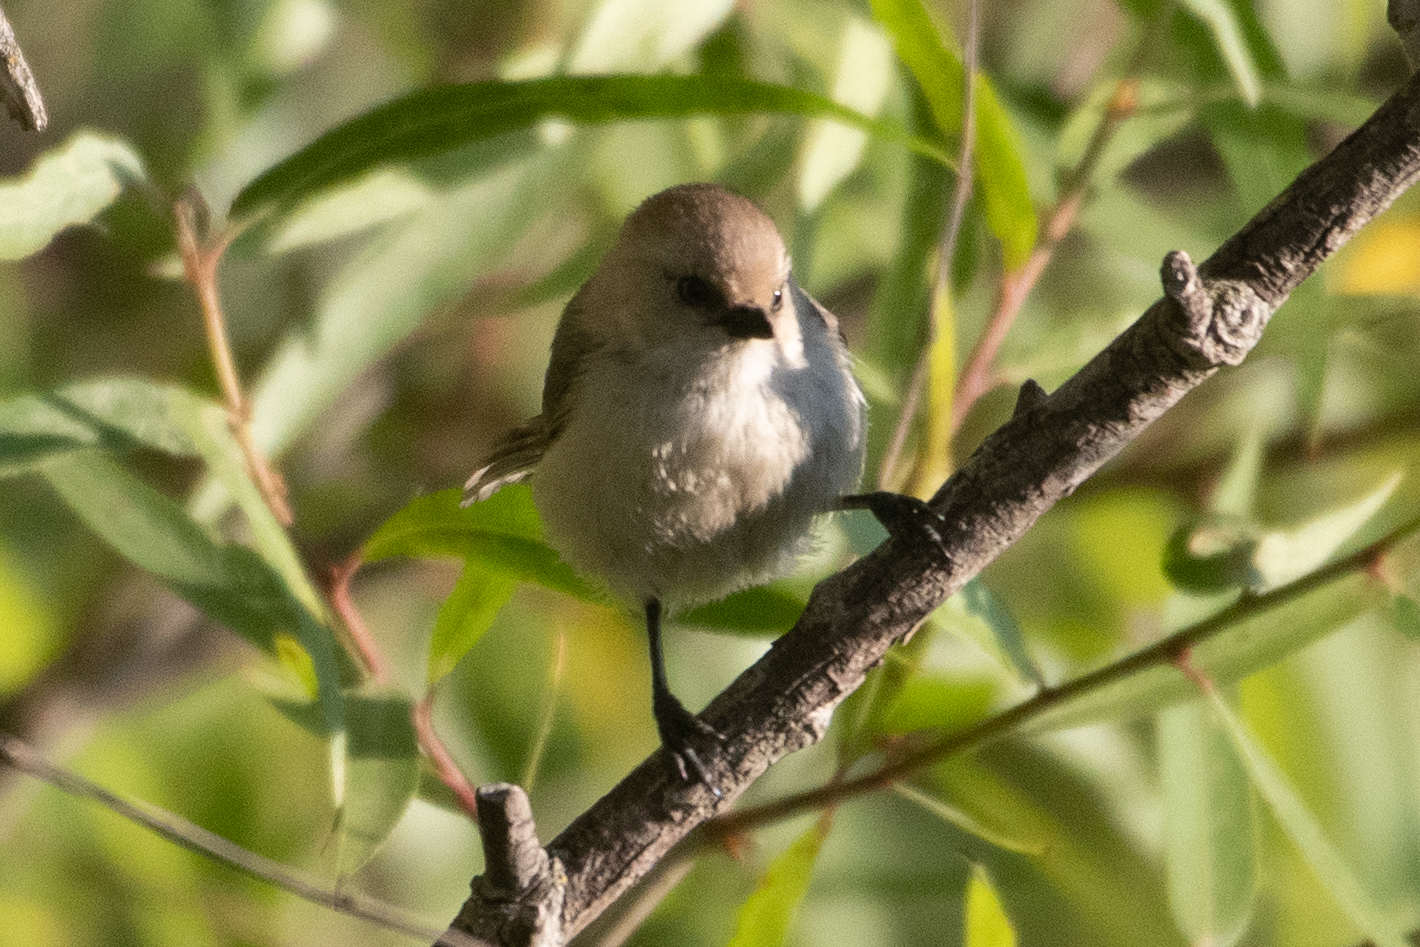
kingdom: Animalia
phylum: Chordata
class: Aves
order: Passeriformes
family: Aegithalidae
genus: Psaltriparus
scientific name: Psaltriparus minimus
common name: American bushtit
